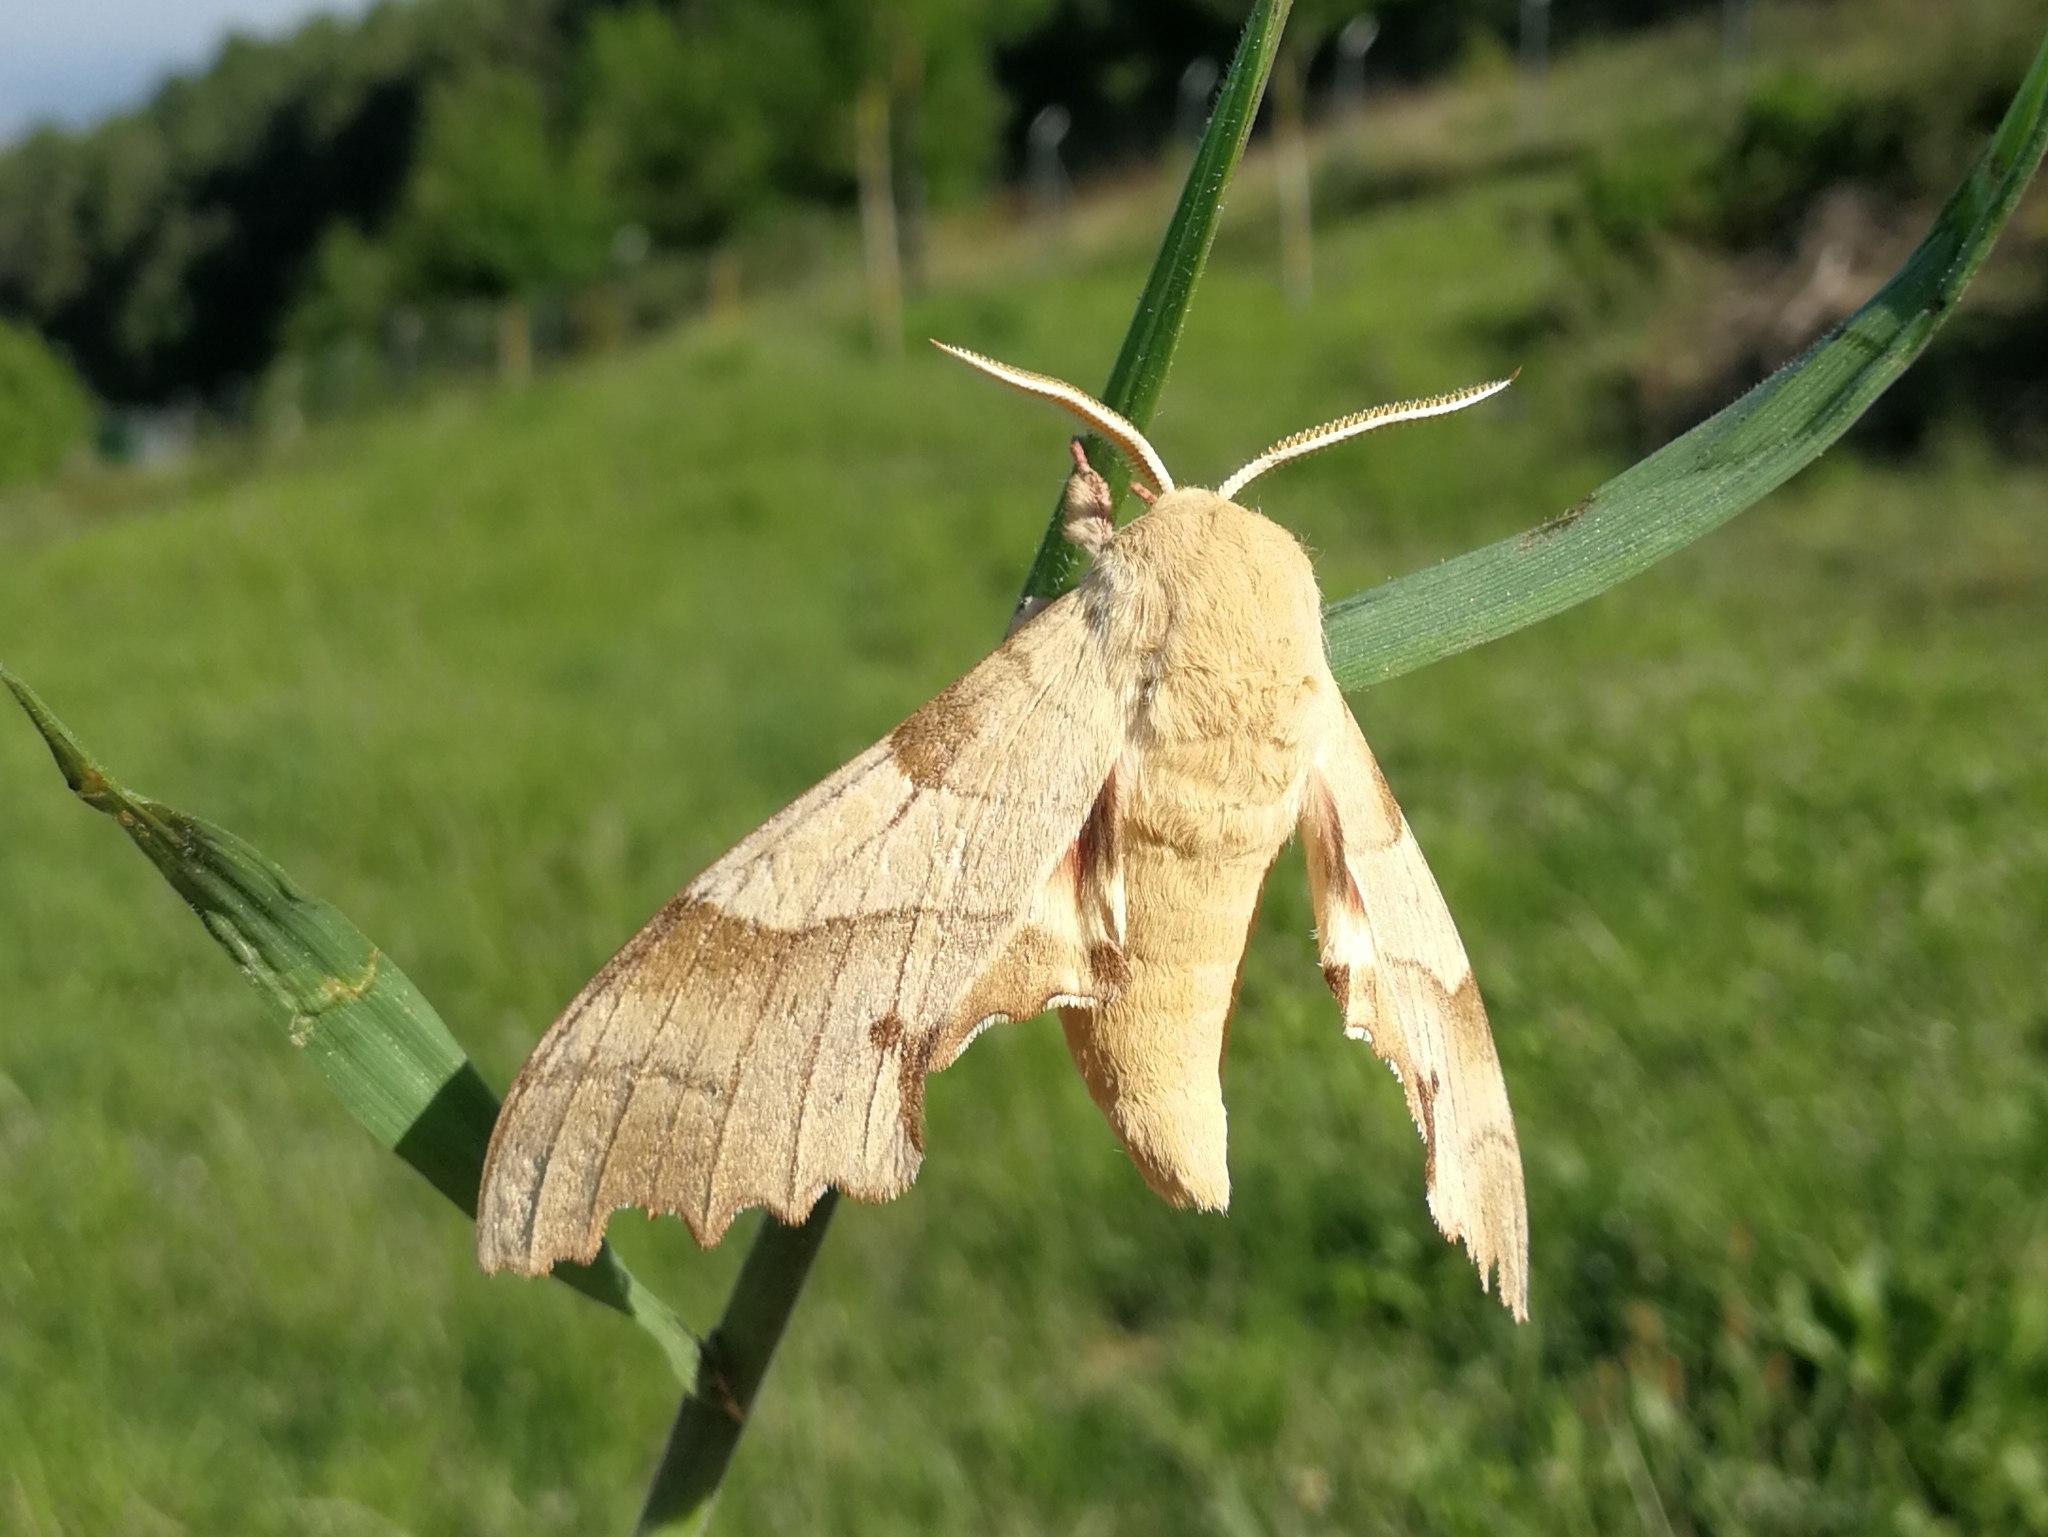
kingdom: Animalia
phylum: Arthropoda
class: Insecta
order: Lepidoptera
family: Sphingidae
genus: Marumba
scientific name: Marumba quercus
